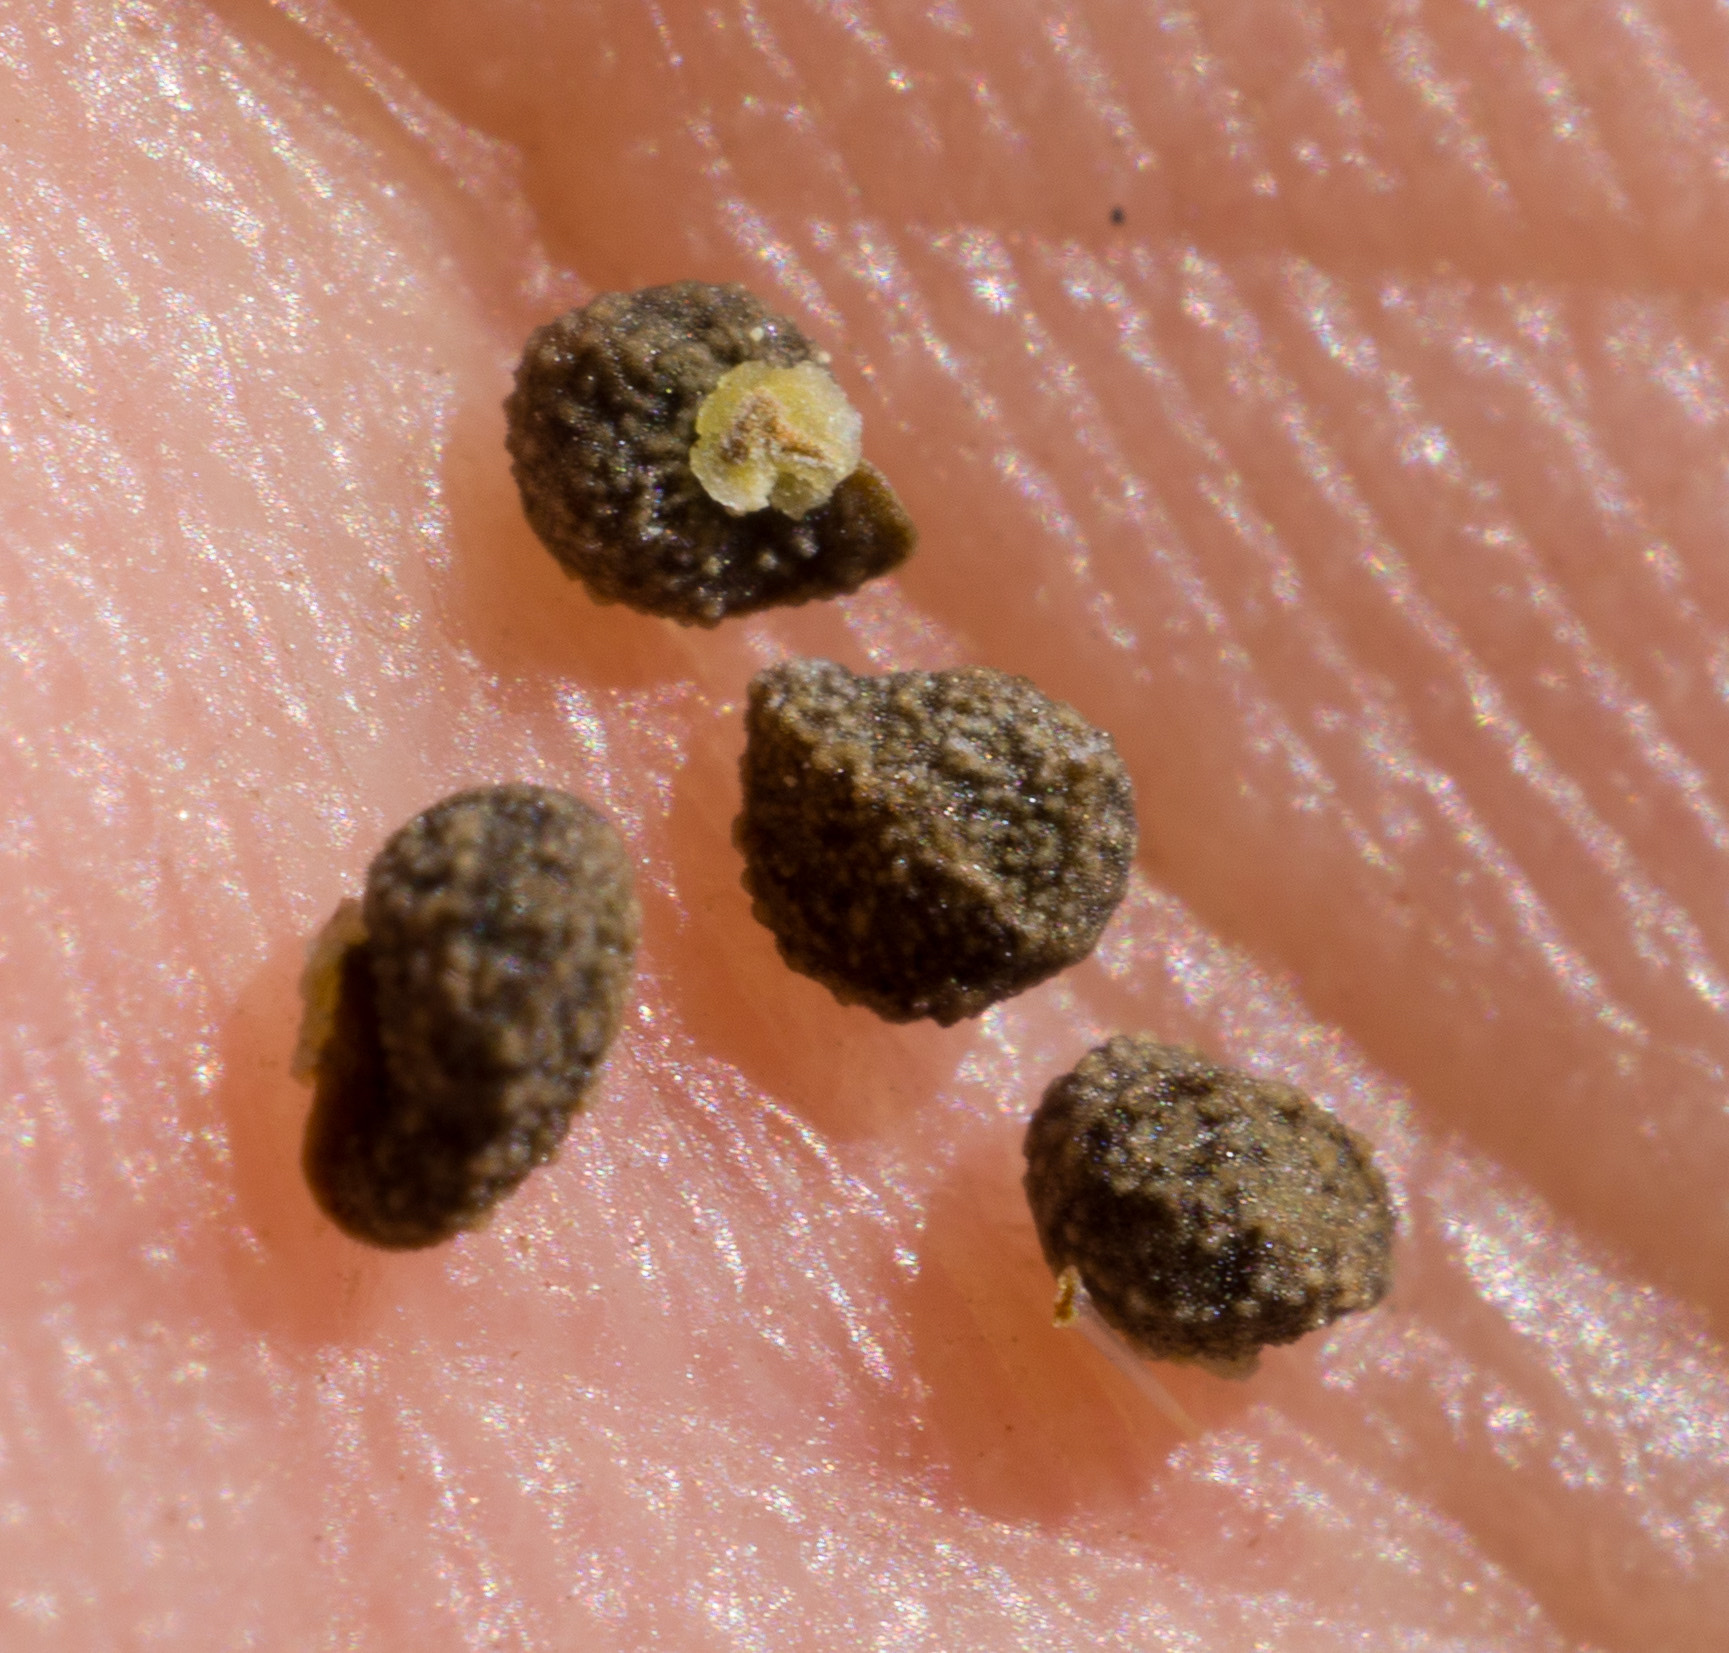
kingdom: Plantae
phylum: Tracheophyta
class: Magnoliopsida
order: Boraginales
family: Boraginaceae
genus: Plagiobothrys
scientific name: Plagiobothrys hispidus
